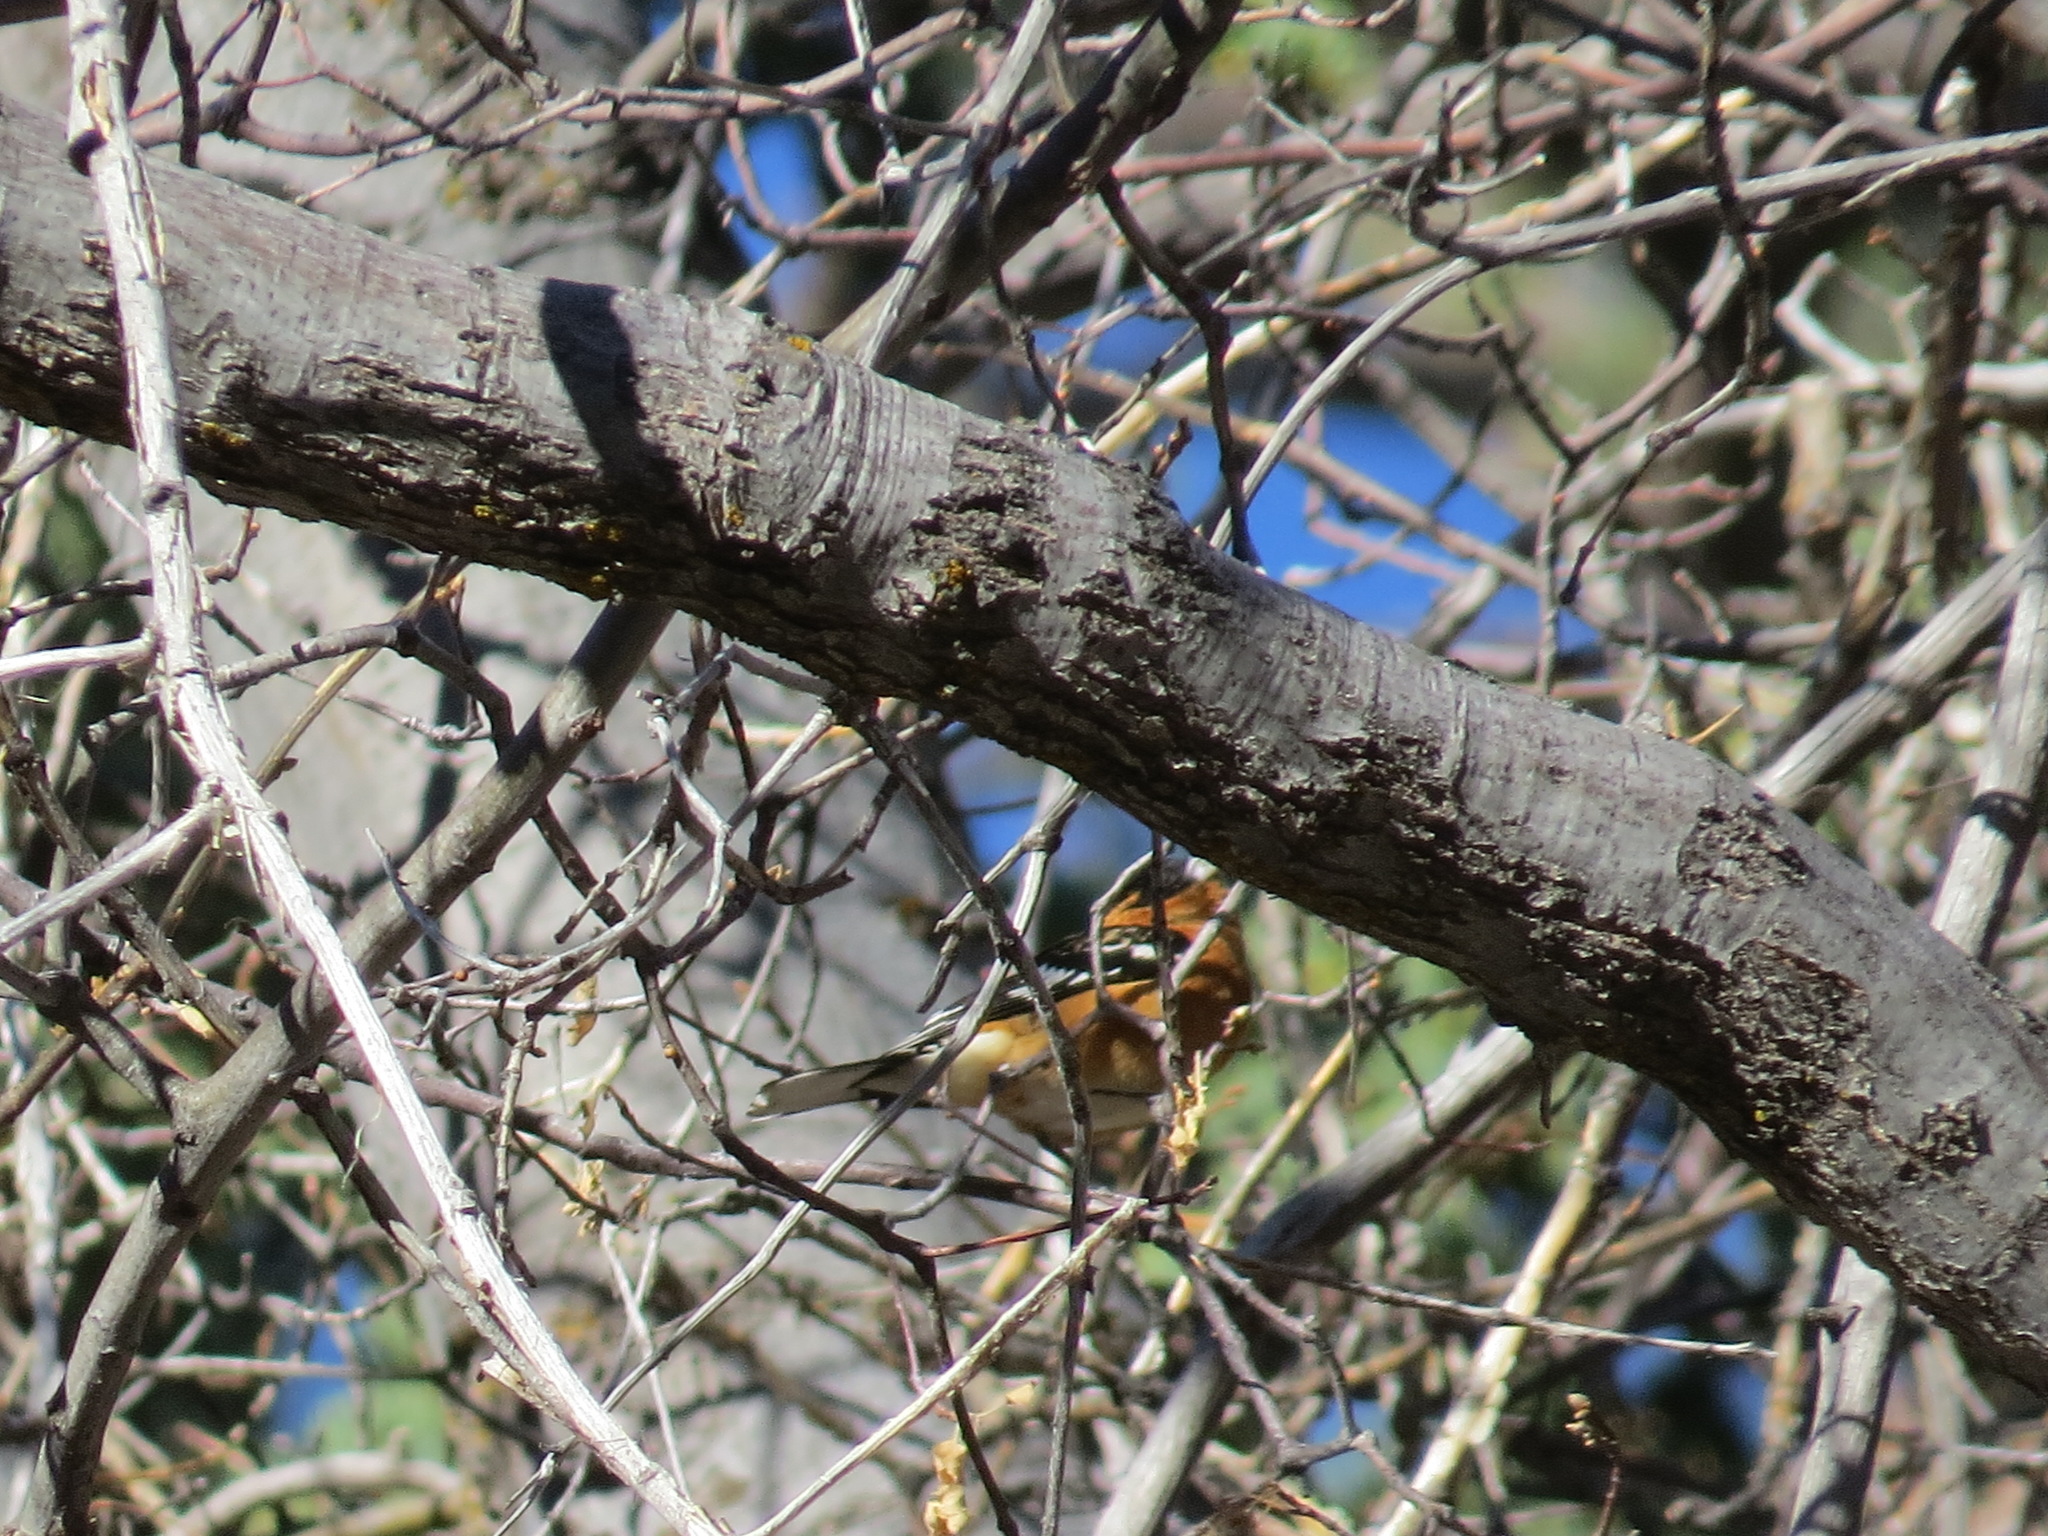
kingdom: Animalia
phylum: Chordata
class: Aves
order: Passeriformes
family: Cardinalidae
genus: Pheucticus
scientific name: Pheucticus melanocephalus
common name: Black-headed grosbeak
